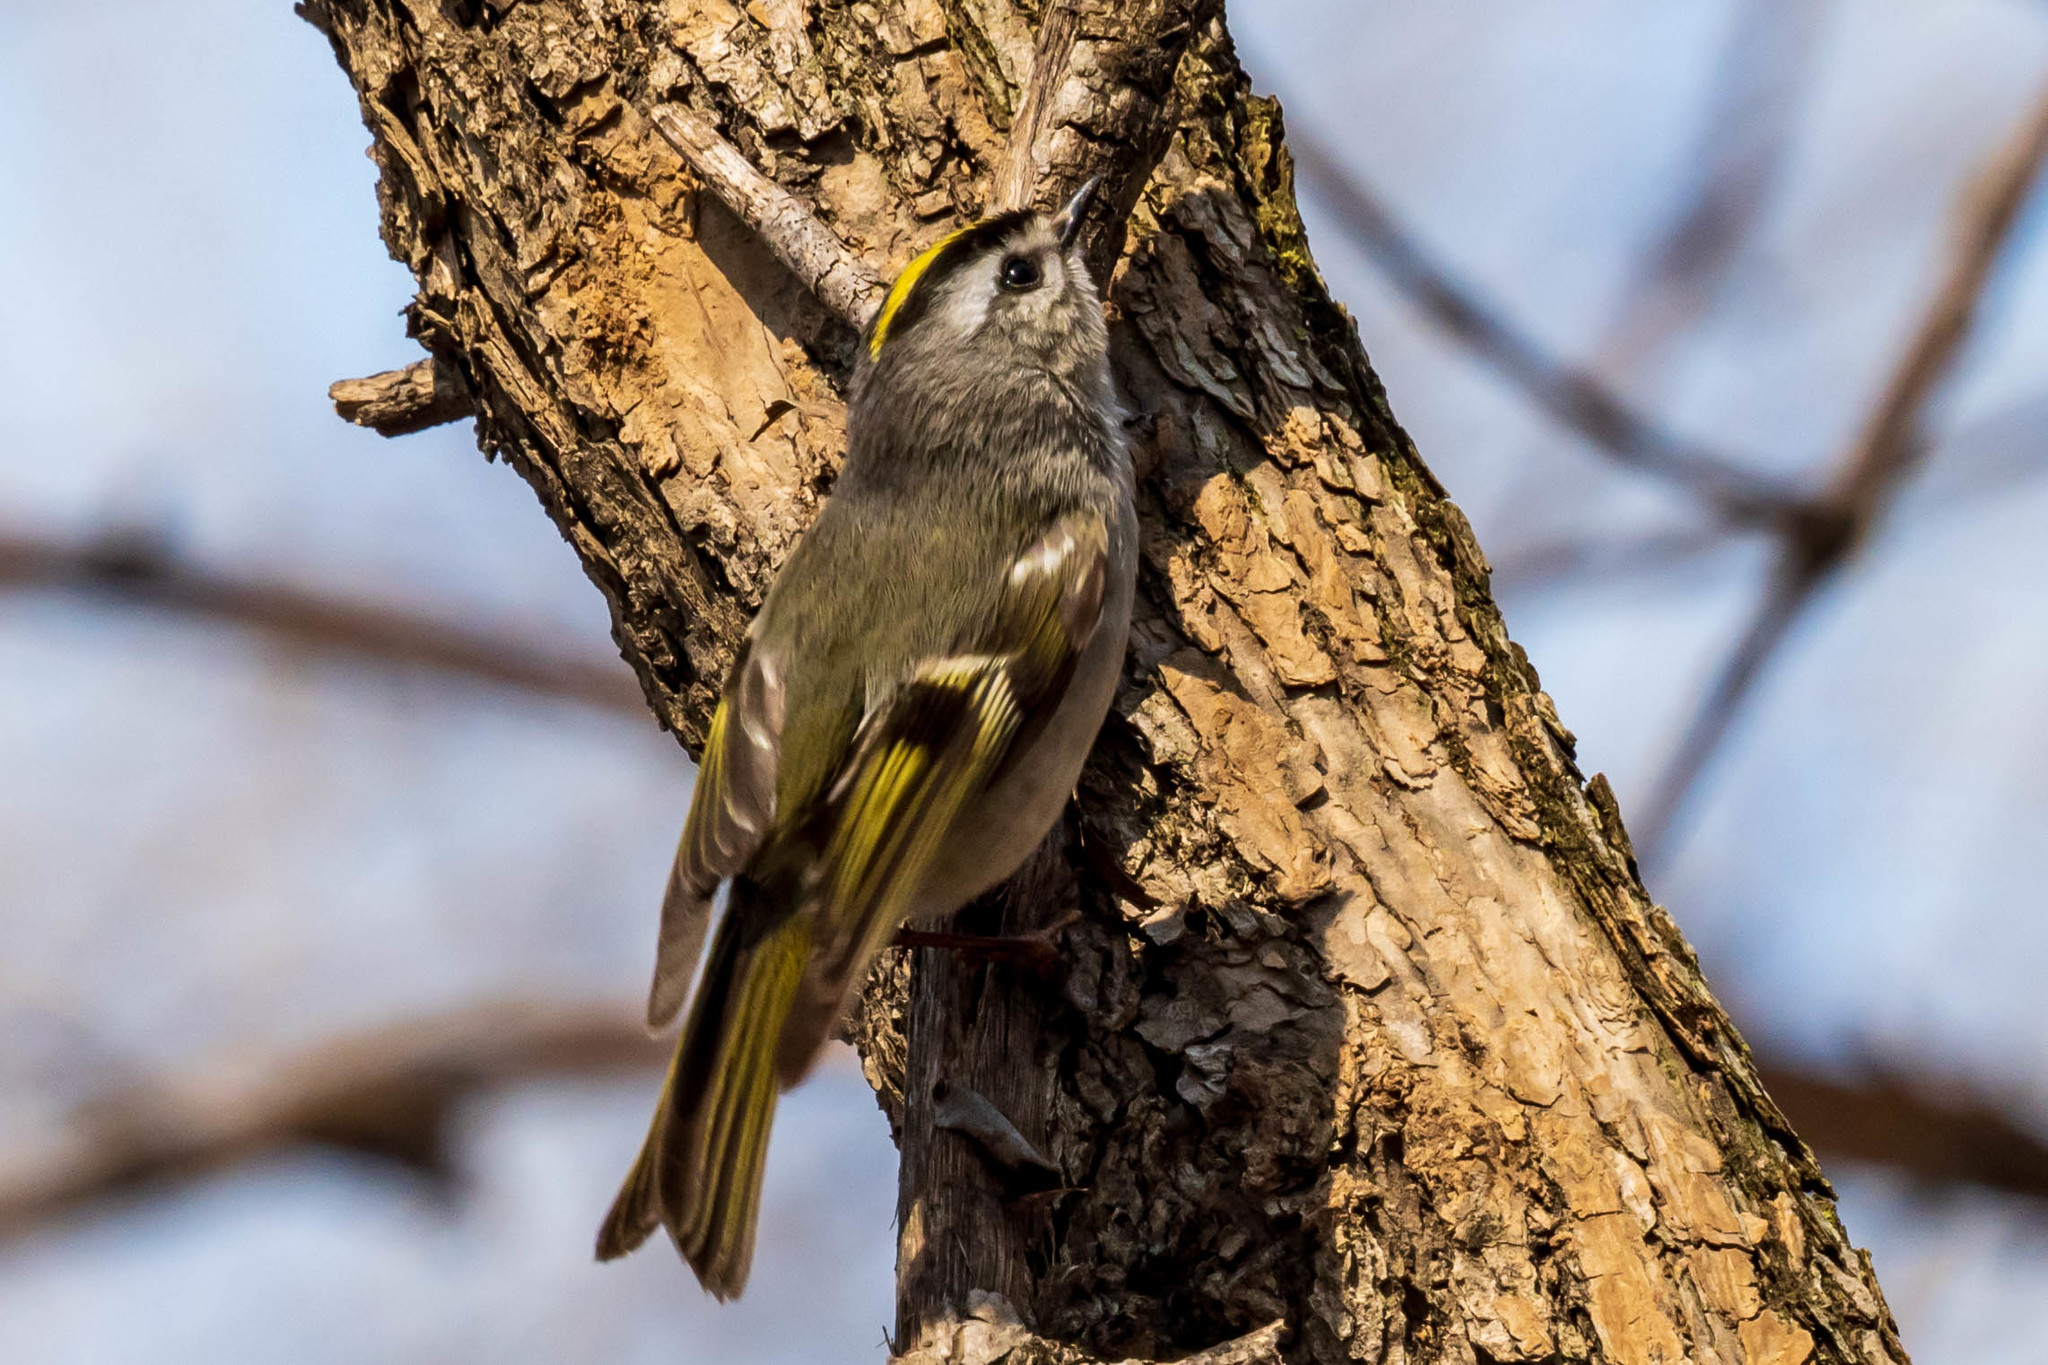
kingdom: Animalia
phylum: Chordata
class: Aves
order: Passeriformes
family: Regulidae
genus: Regulus
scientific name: Regulus satrapa
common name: Golden-crowned kinglet
